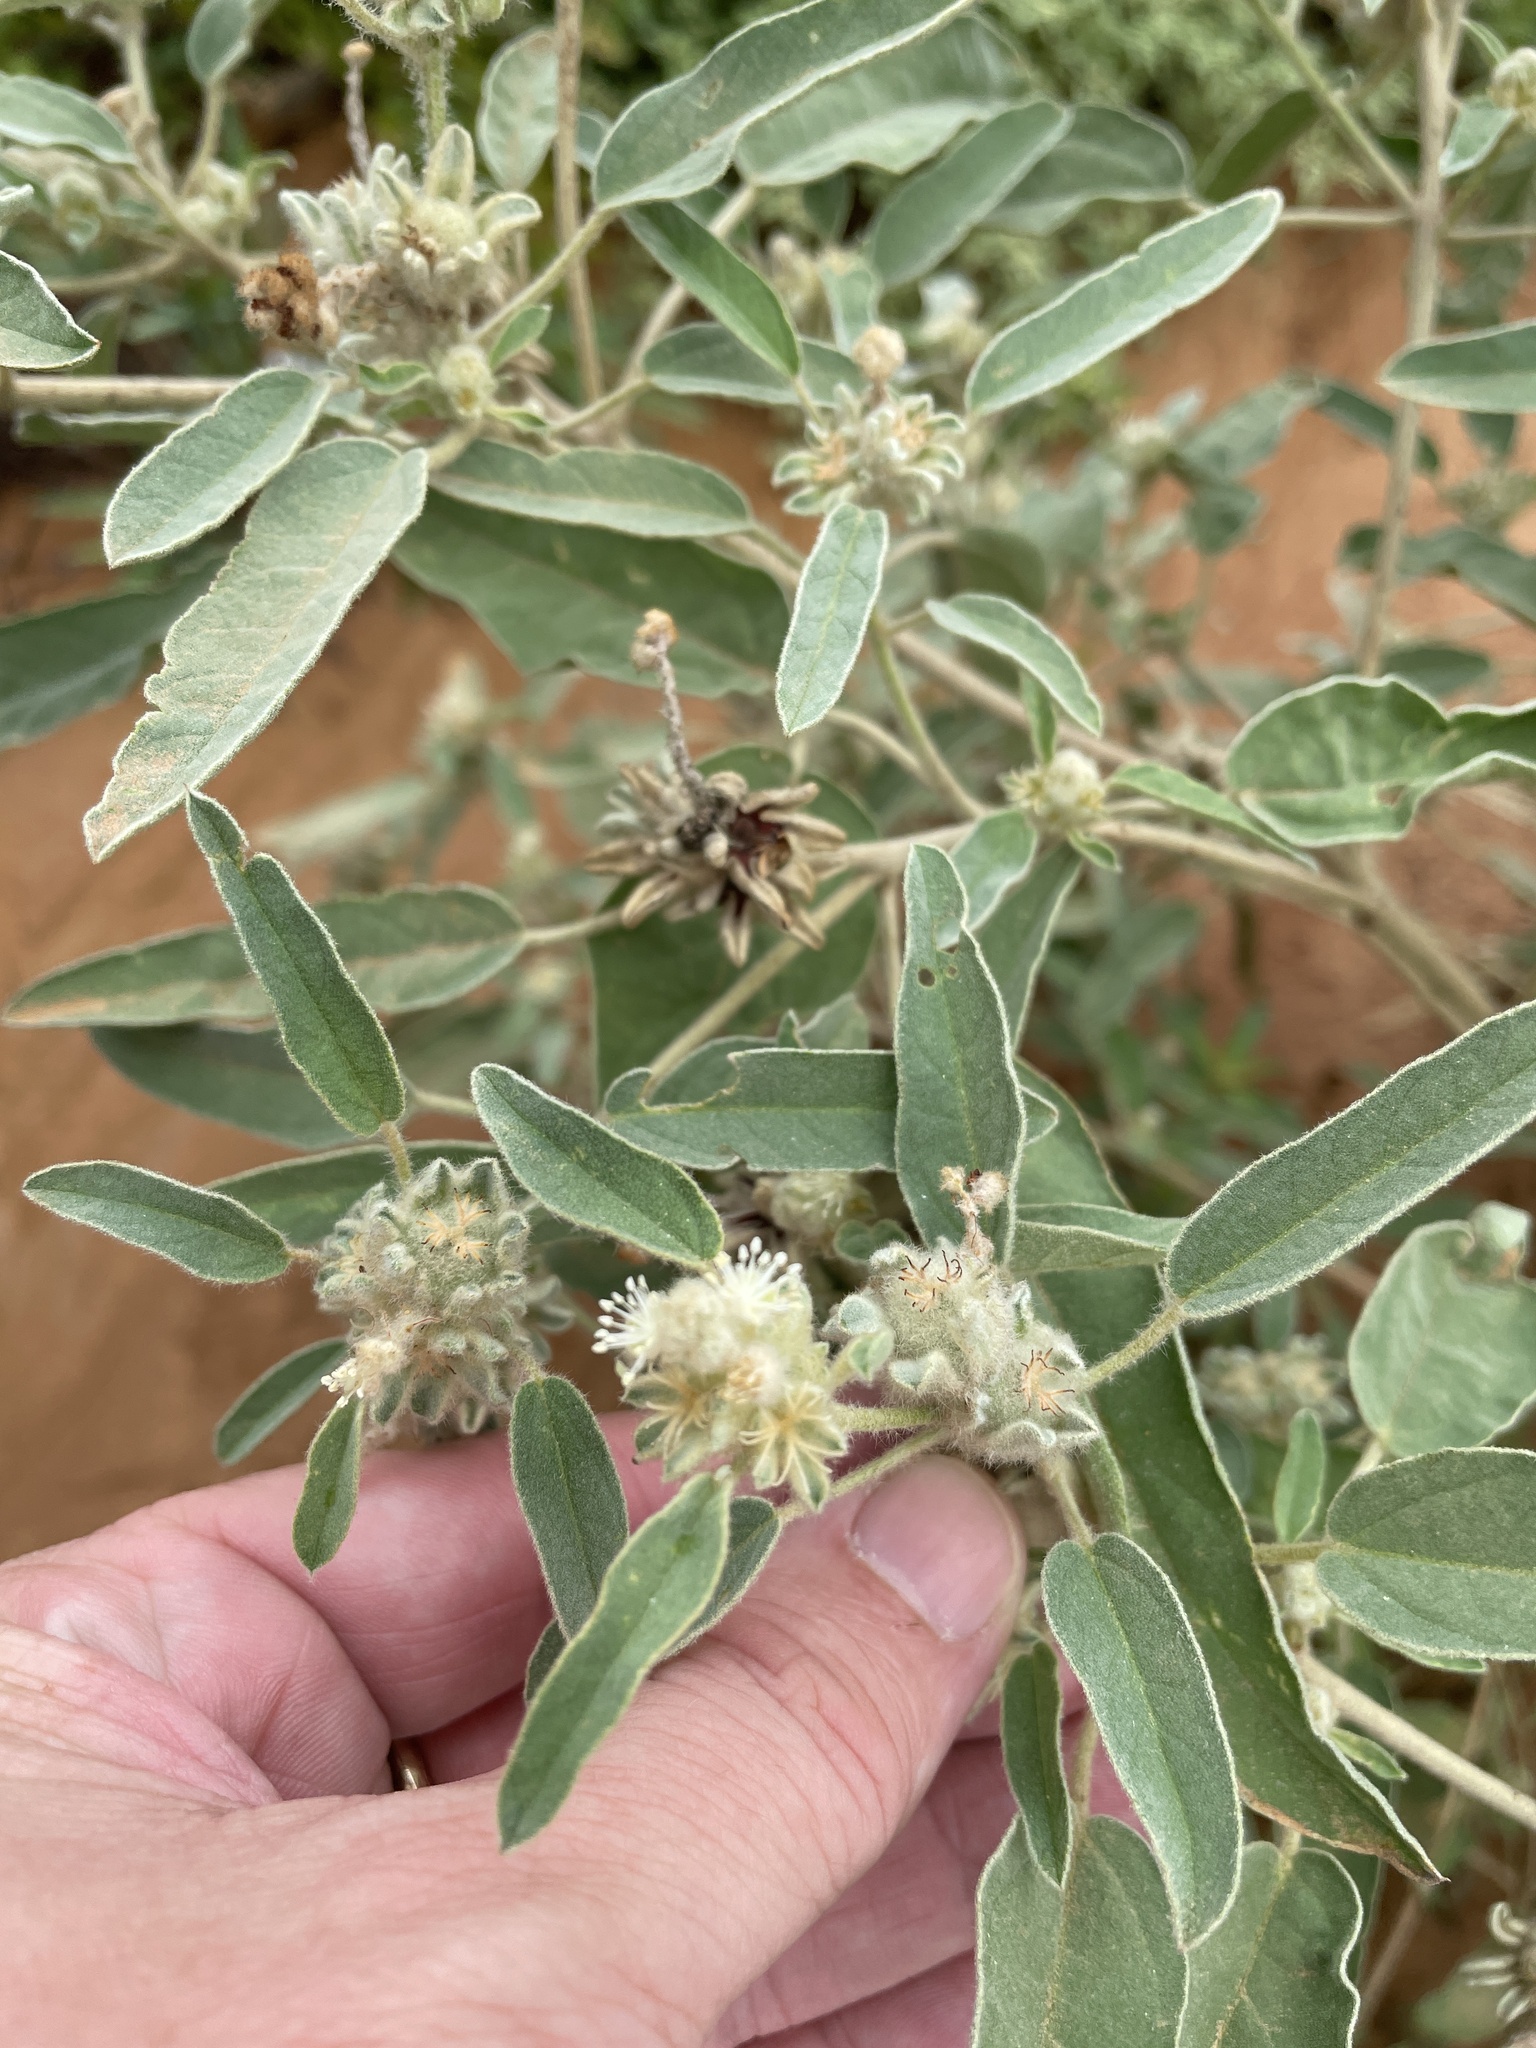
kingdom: Plantae
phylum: Tracheophyta
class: Magnoliopsida
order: Malpighiales
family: Euphorbiaceae
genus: Croton
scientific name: Croton capitatus
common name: Woolly croton
